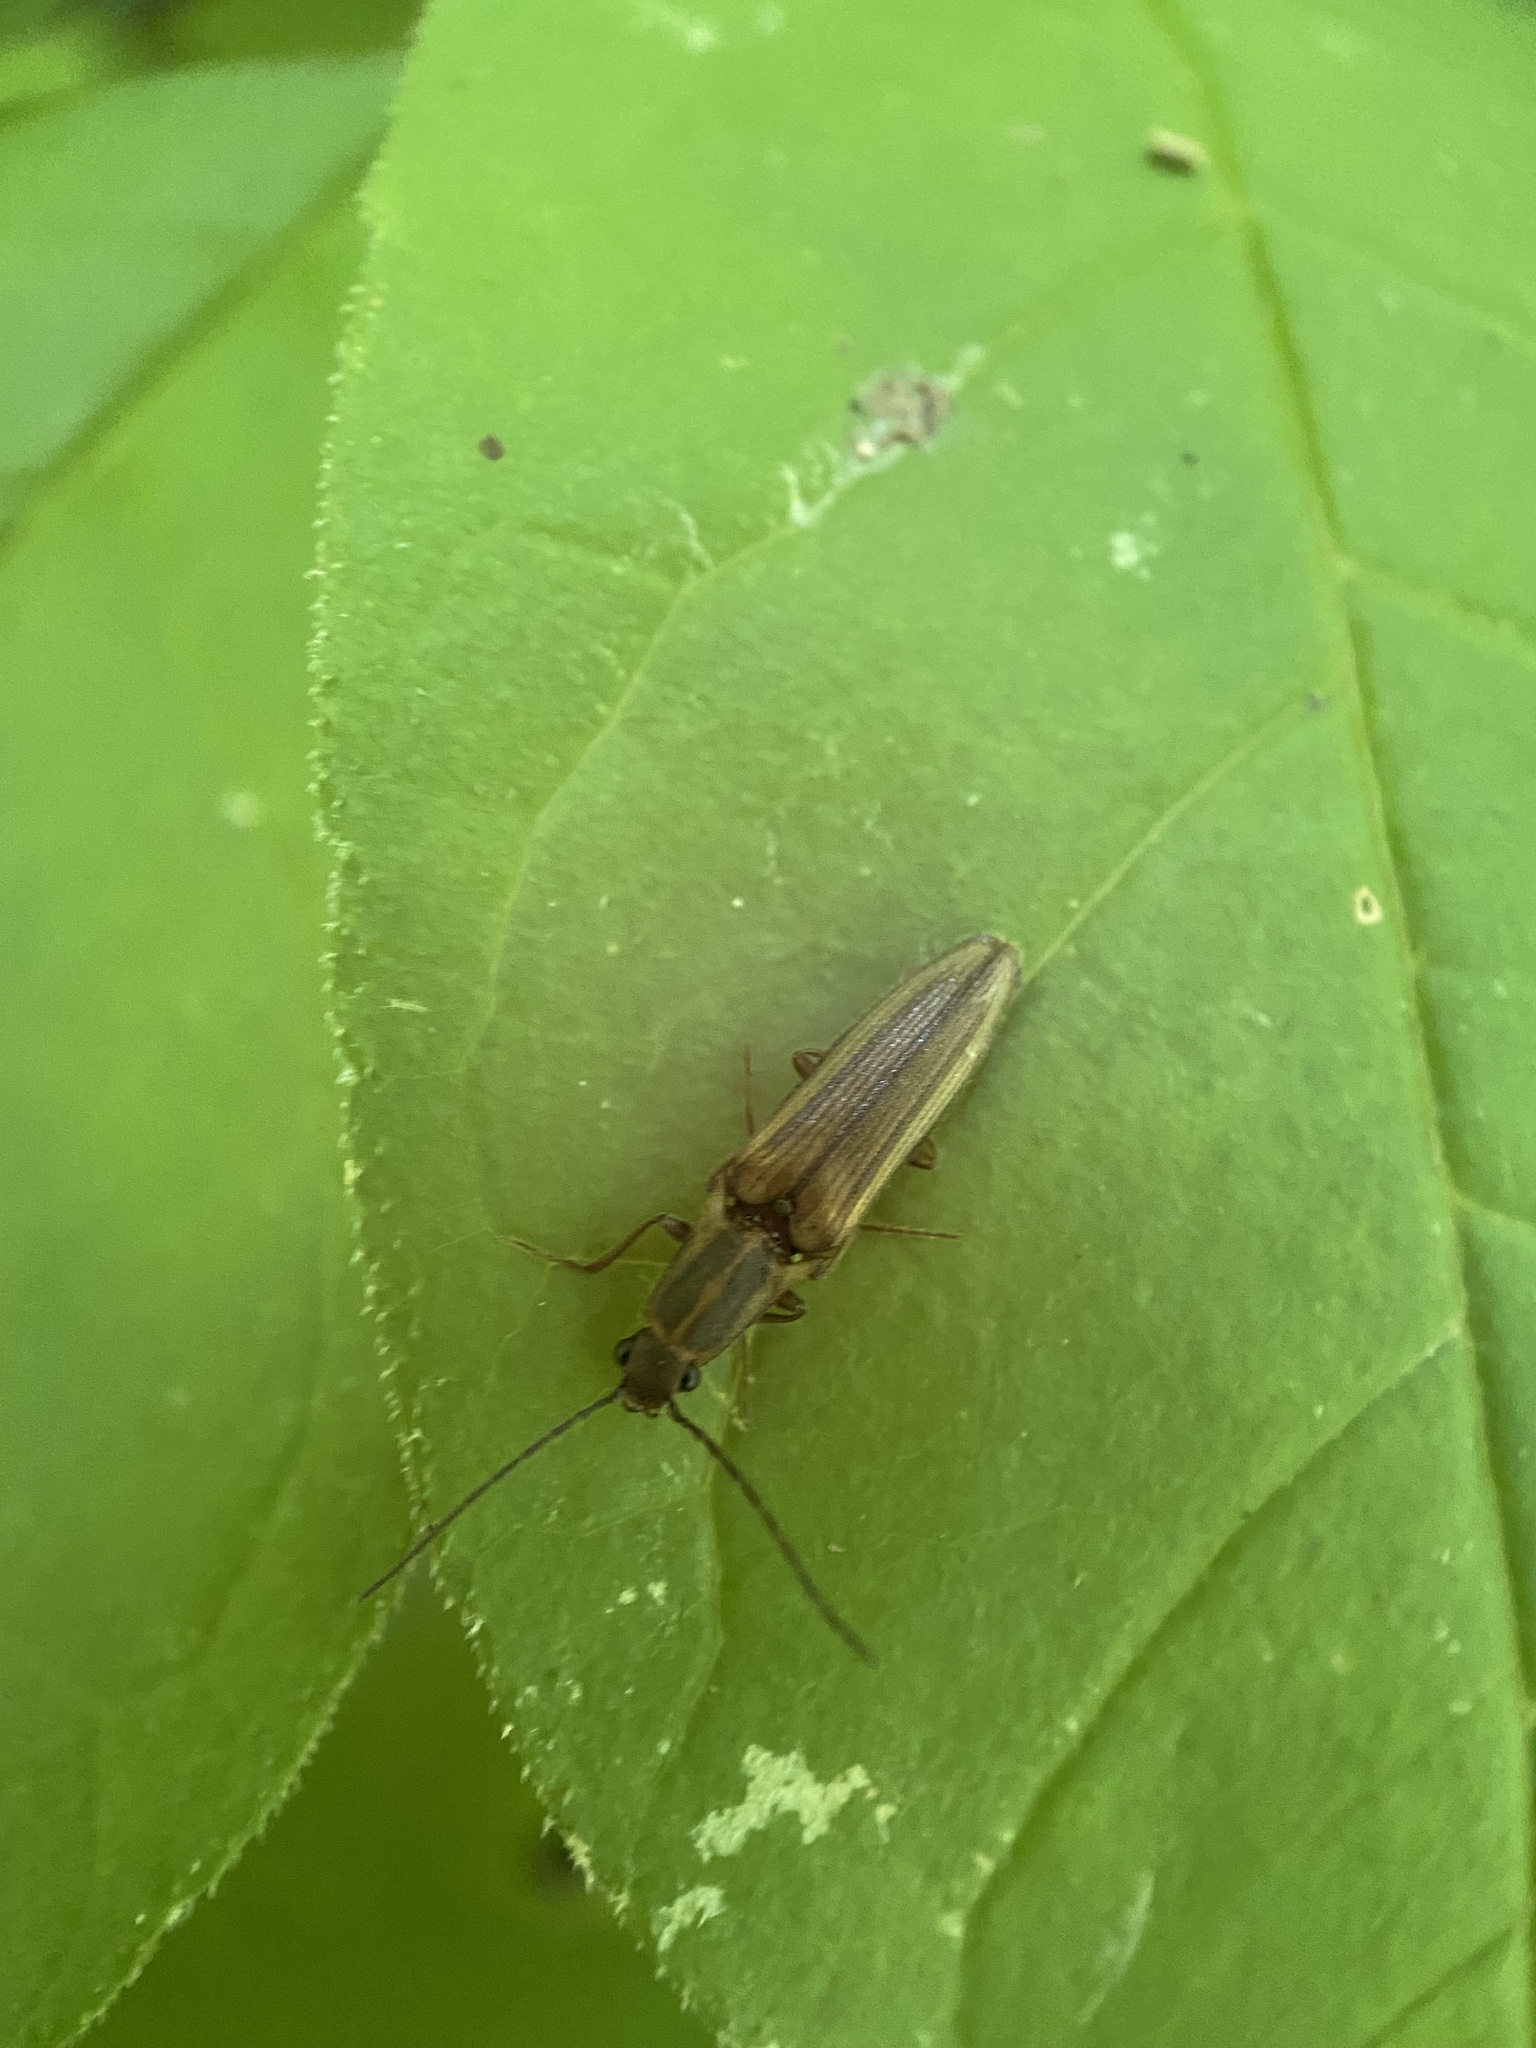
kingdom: Animalia
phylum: Arthropoda
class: Insecta
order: Coleoptera
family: Elateridae
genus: Euplastius
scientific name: Euplastius
